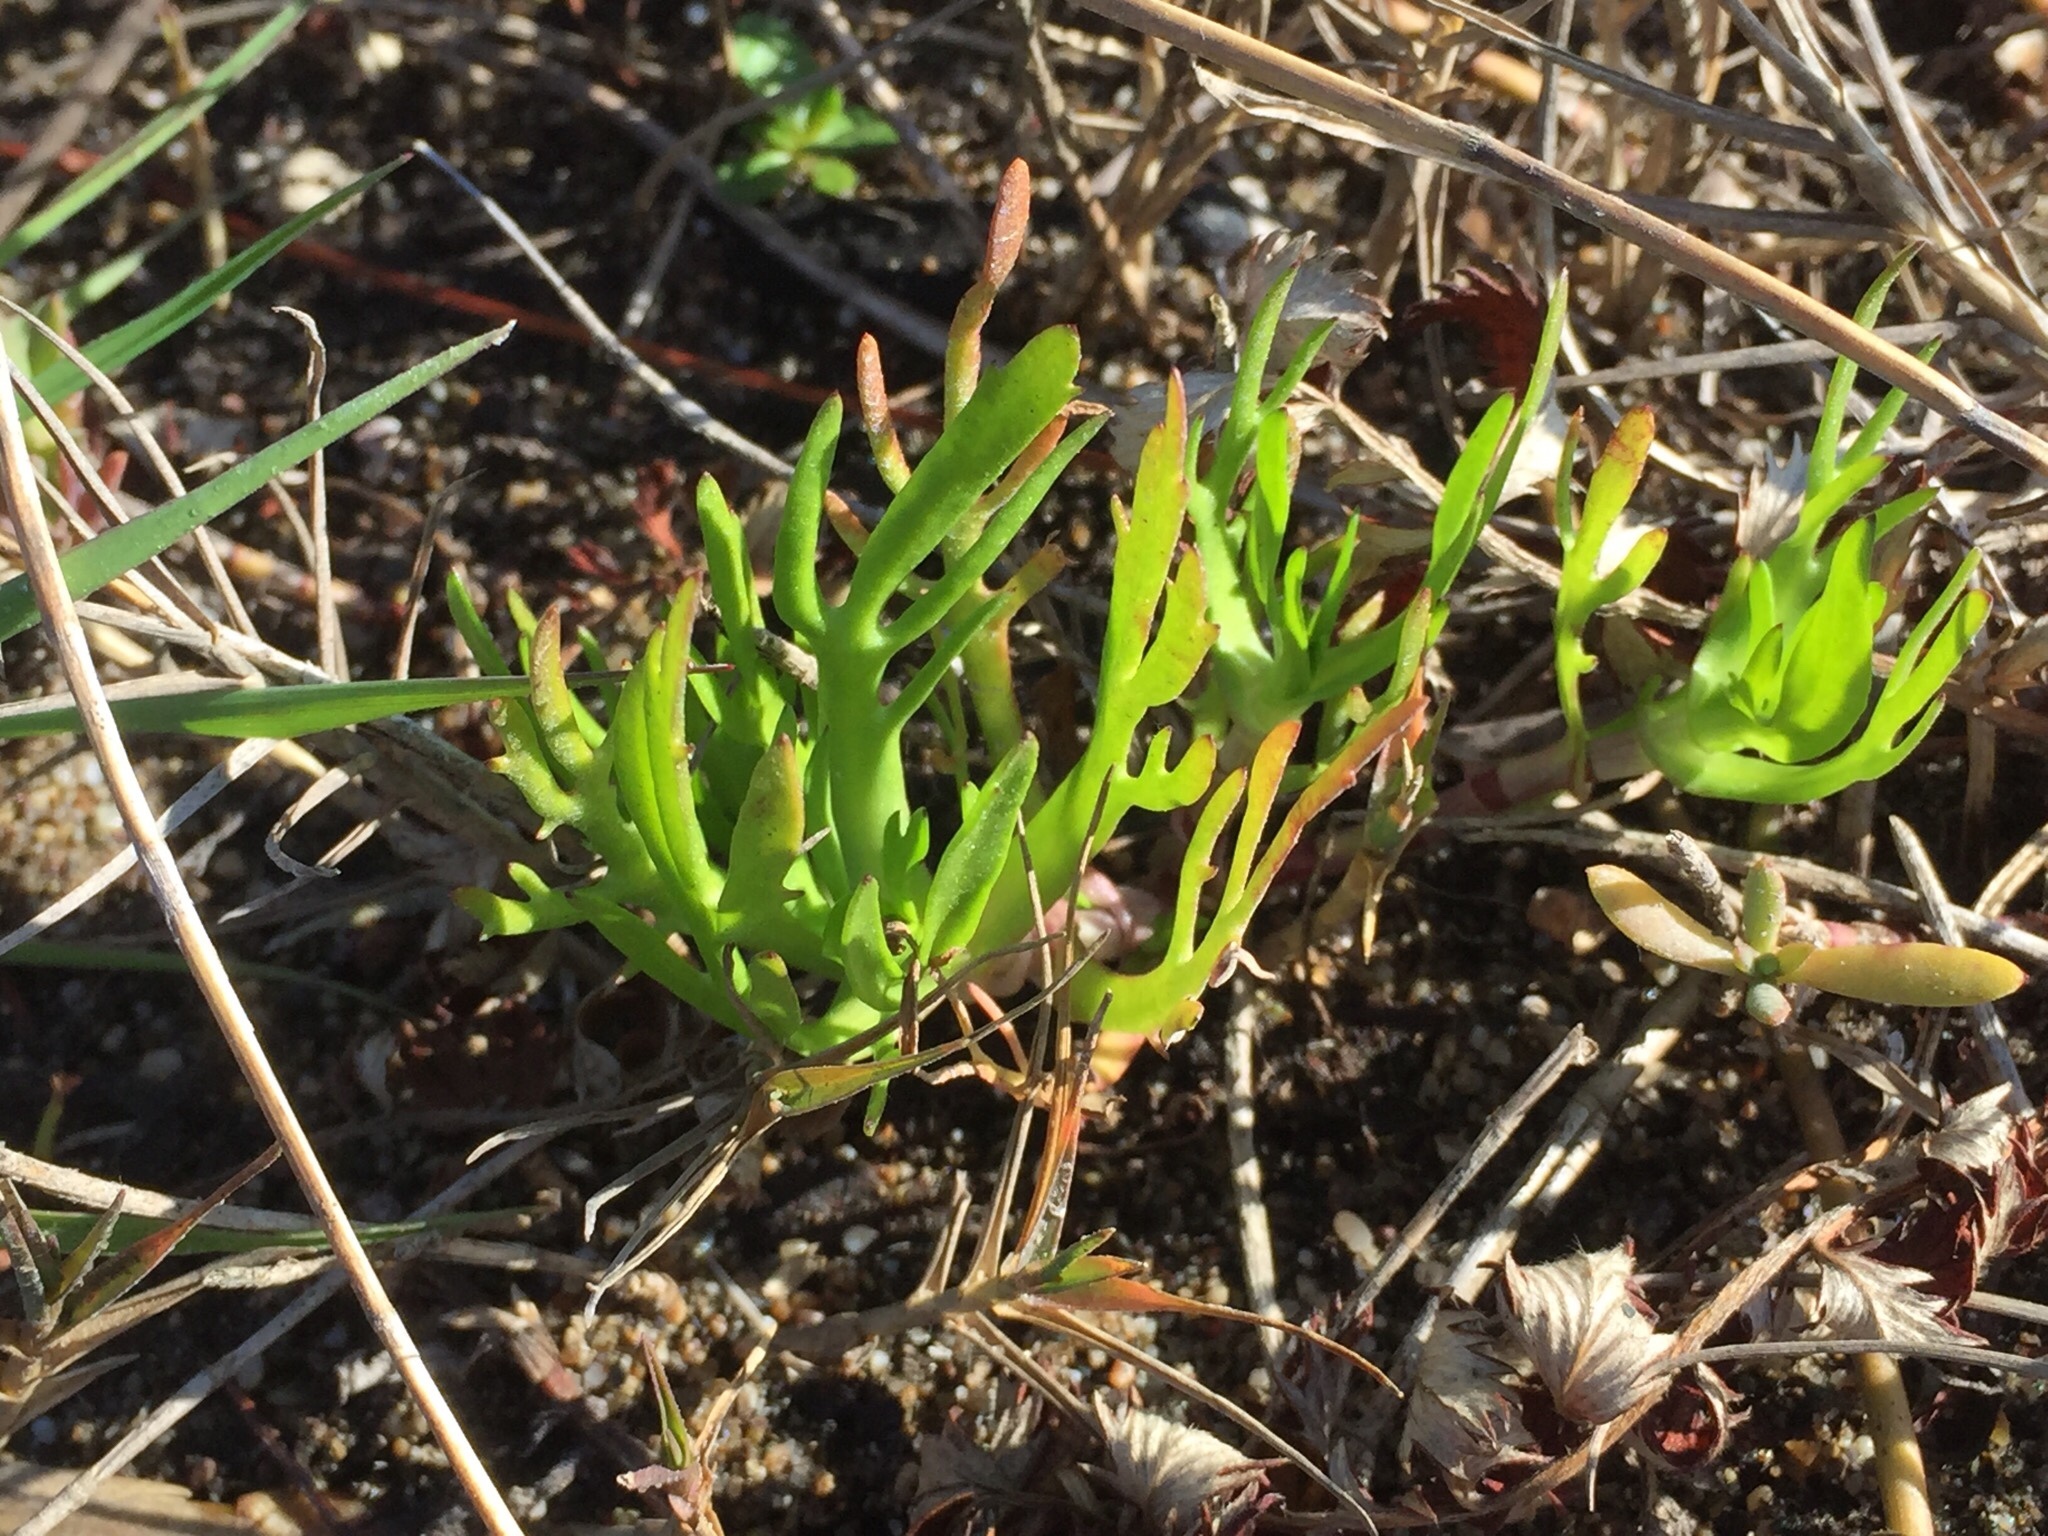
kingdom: Plantae
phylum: Tracheophyta
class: Magnoliopsida
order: Asterales
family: Asteraceae
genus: Cotula
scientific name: Cotula coronopifolia
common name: Buttonweed
